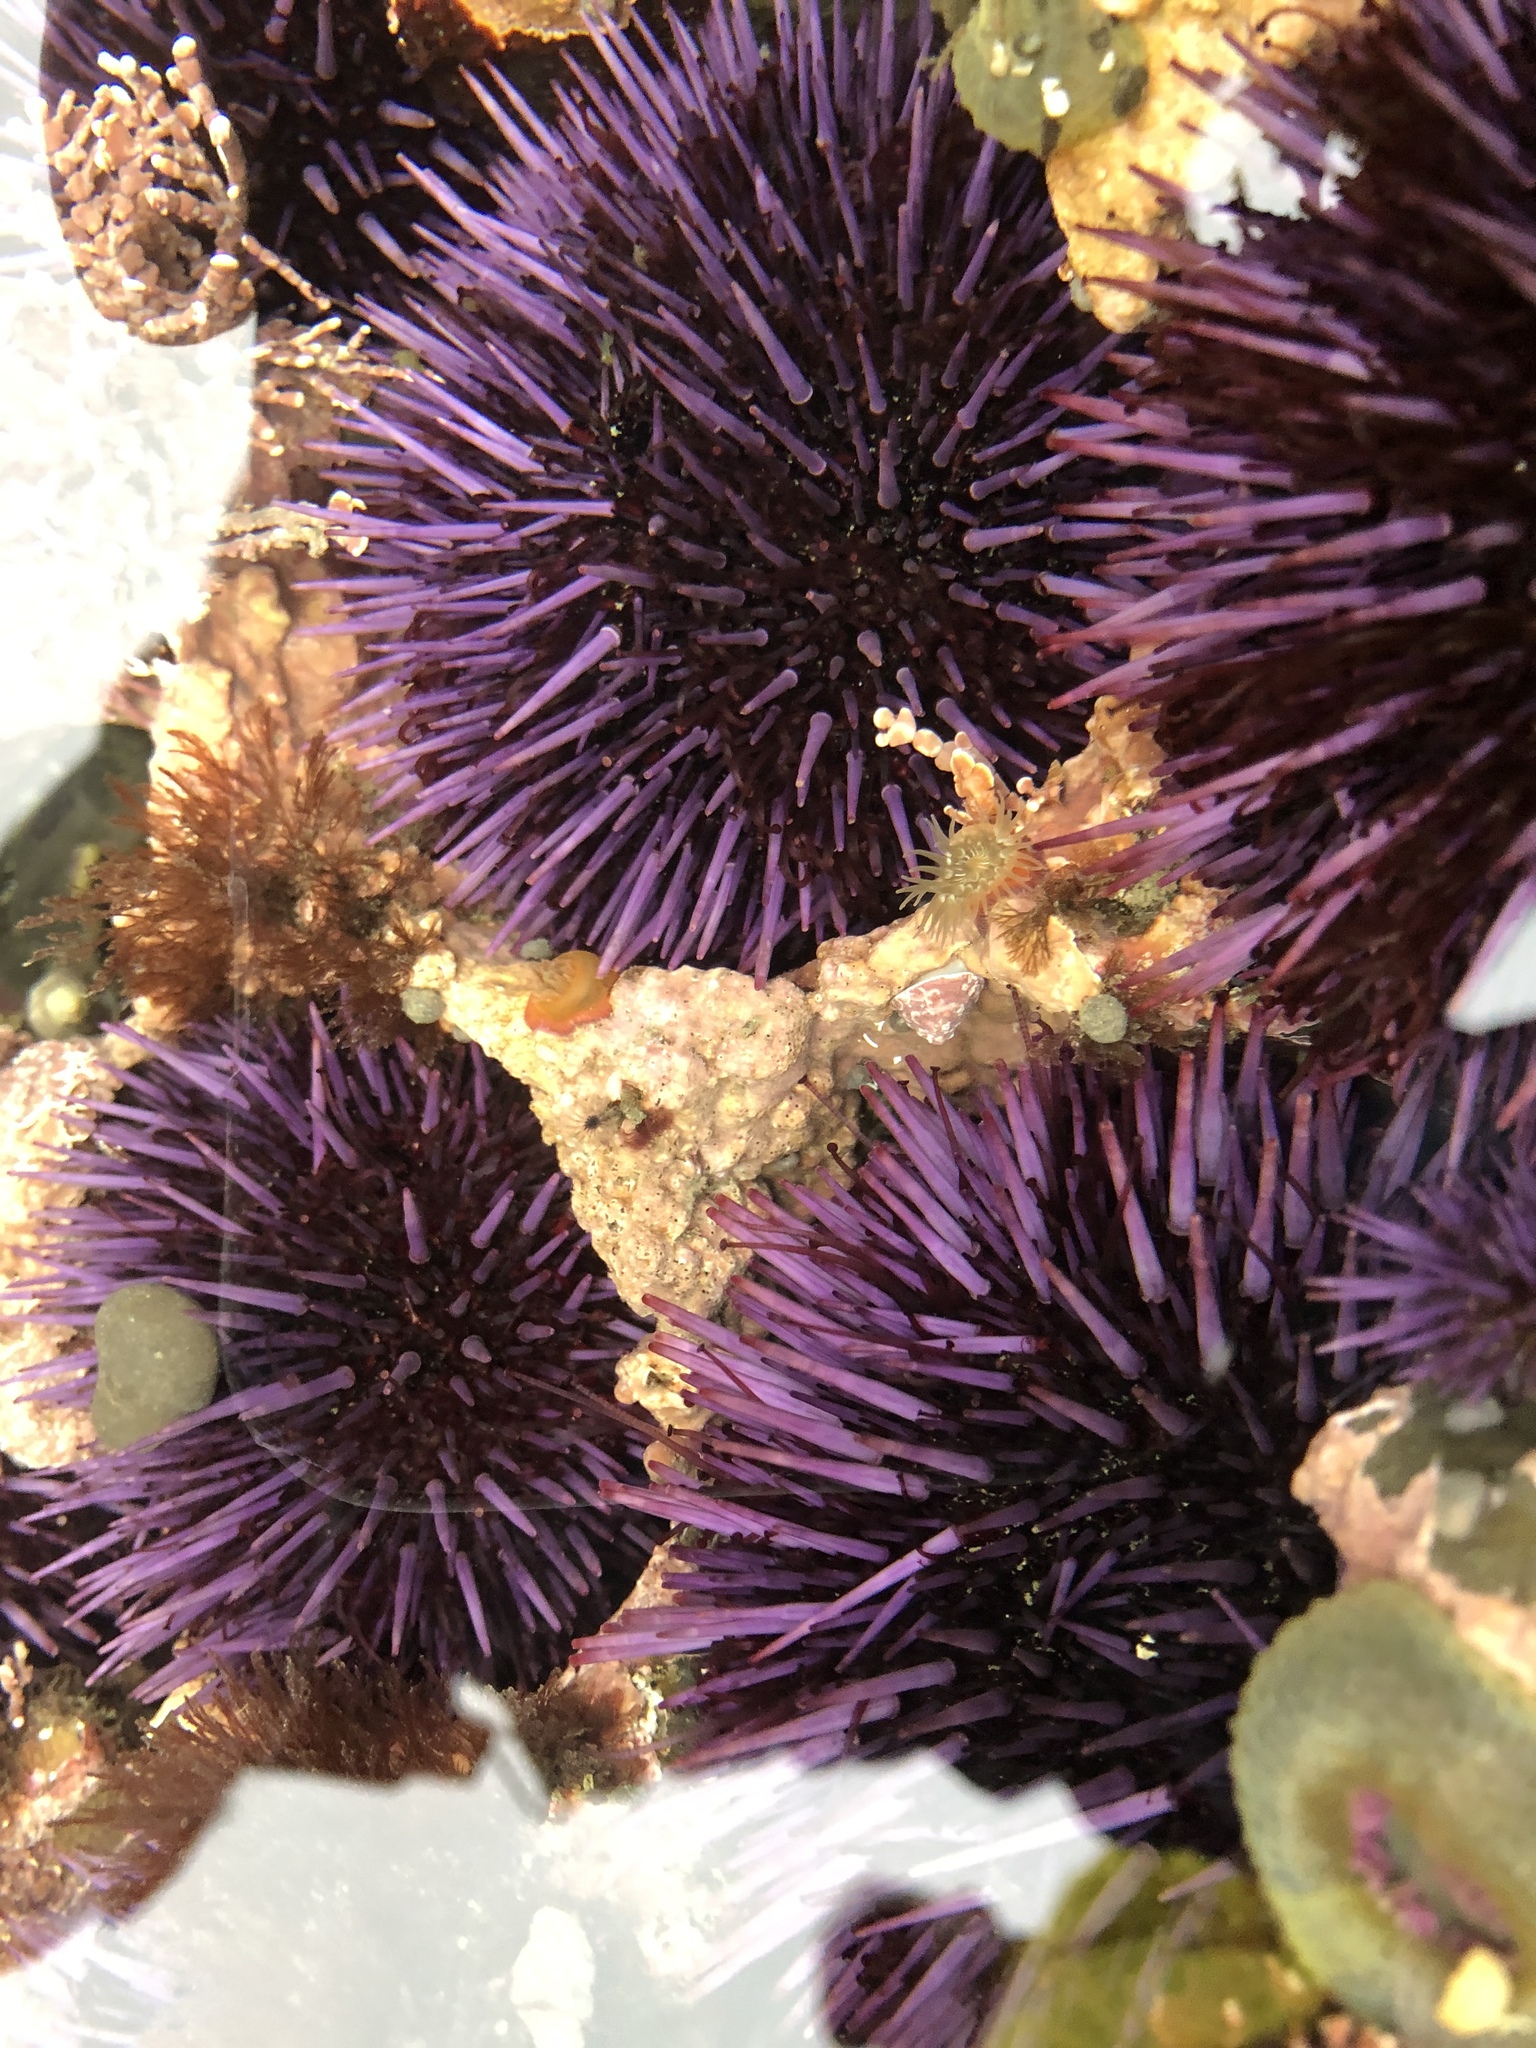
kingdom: Animalia
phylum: Echinodermata
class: Echinoidea
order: Camarodonta
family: Strongylocentrotidae
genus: Strongylocentrotus
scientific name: Strongylocentrotus purpuratus
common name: Purple sea urchin
